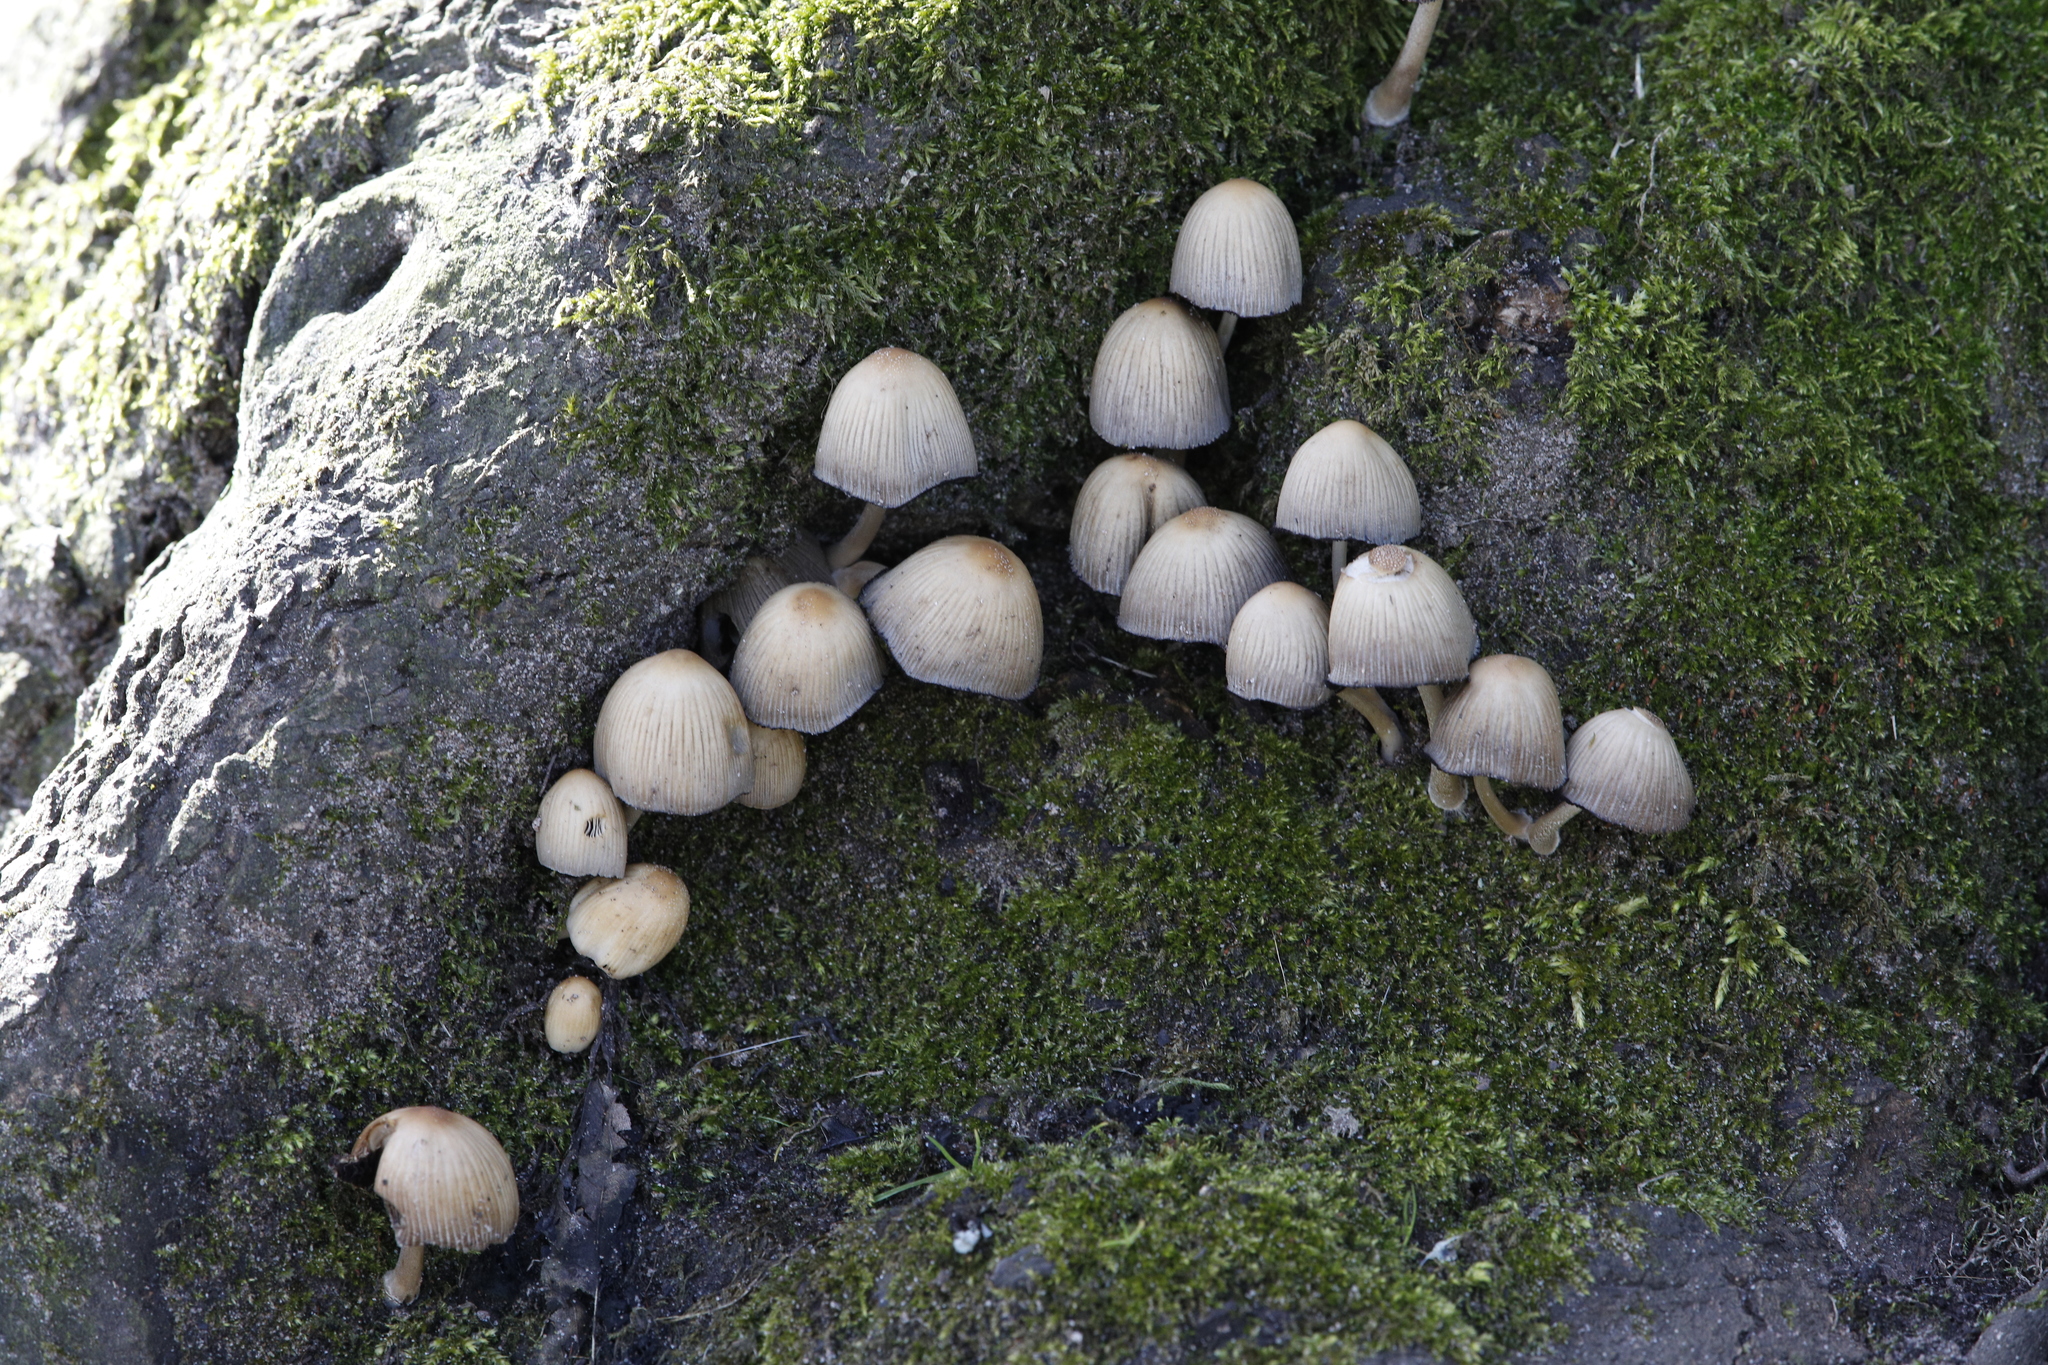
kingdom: Fungi
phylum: Basidiomycota
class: Agaricomycetes
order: Agaricales
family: Psathyrellaceae
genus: Coprinellus
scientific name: Coprinellus
